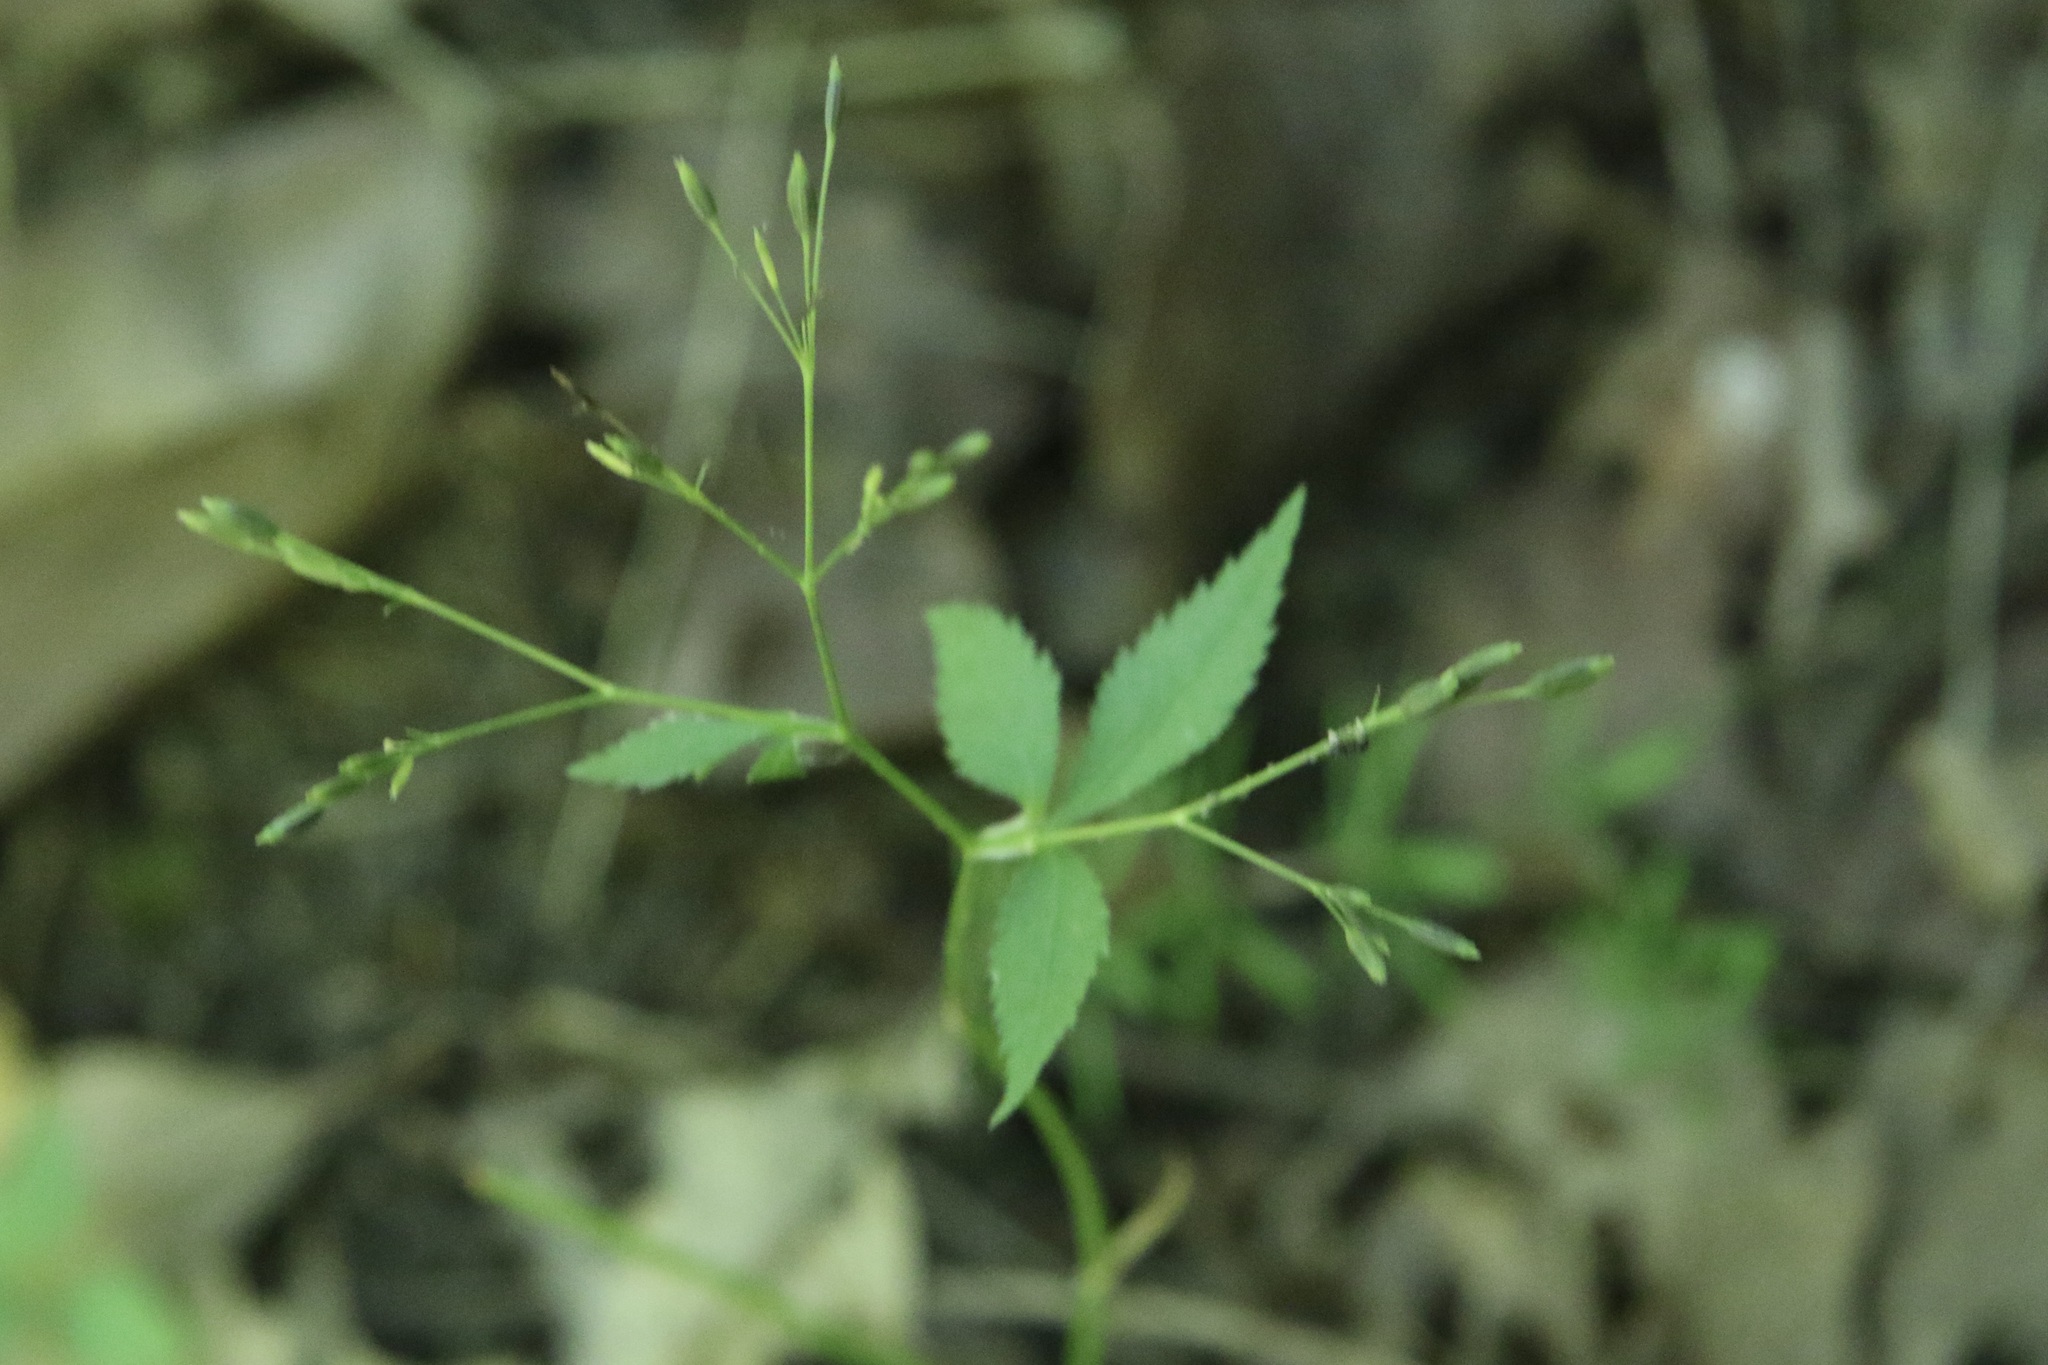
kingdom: Plantae
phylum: Tracheophyta
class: Magnoliopsida
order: Apiales
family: Apiaceae
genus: Cryptotaenia
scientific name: Cryptotaenia canadensis
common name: Honewort
